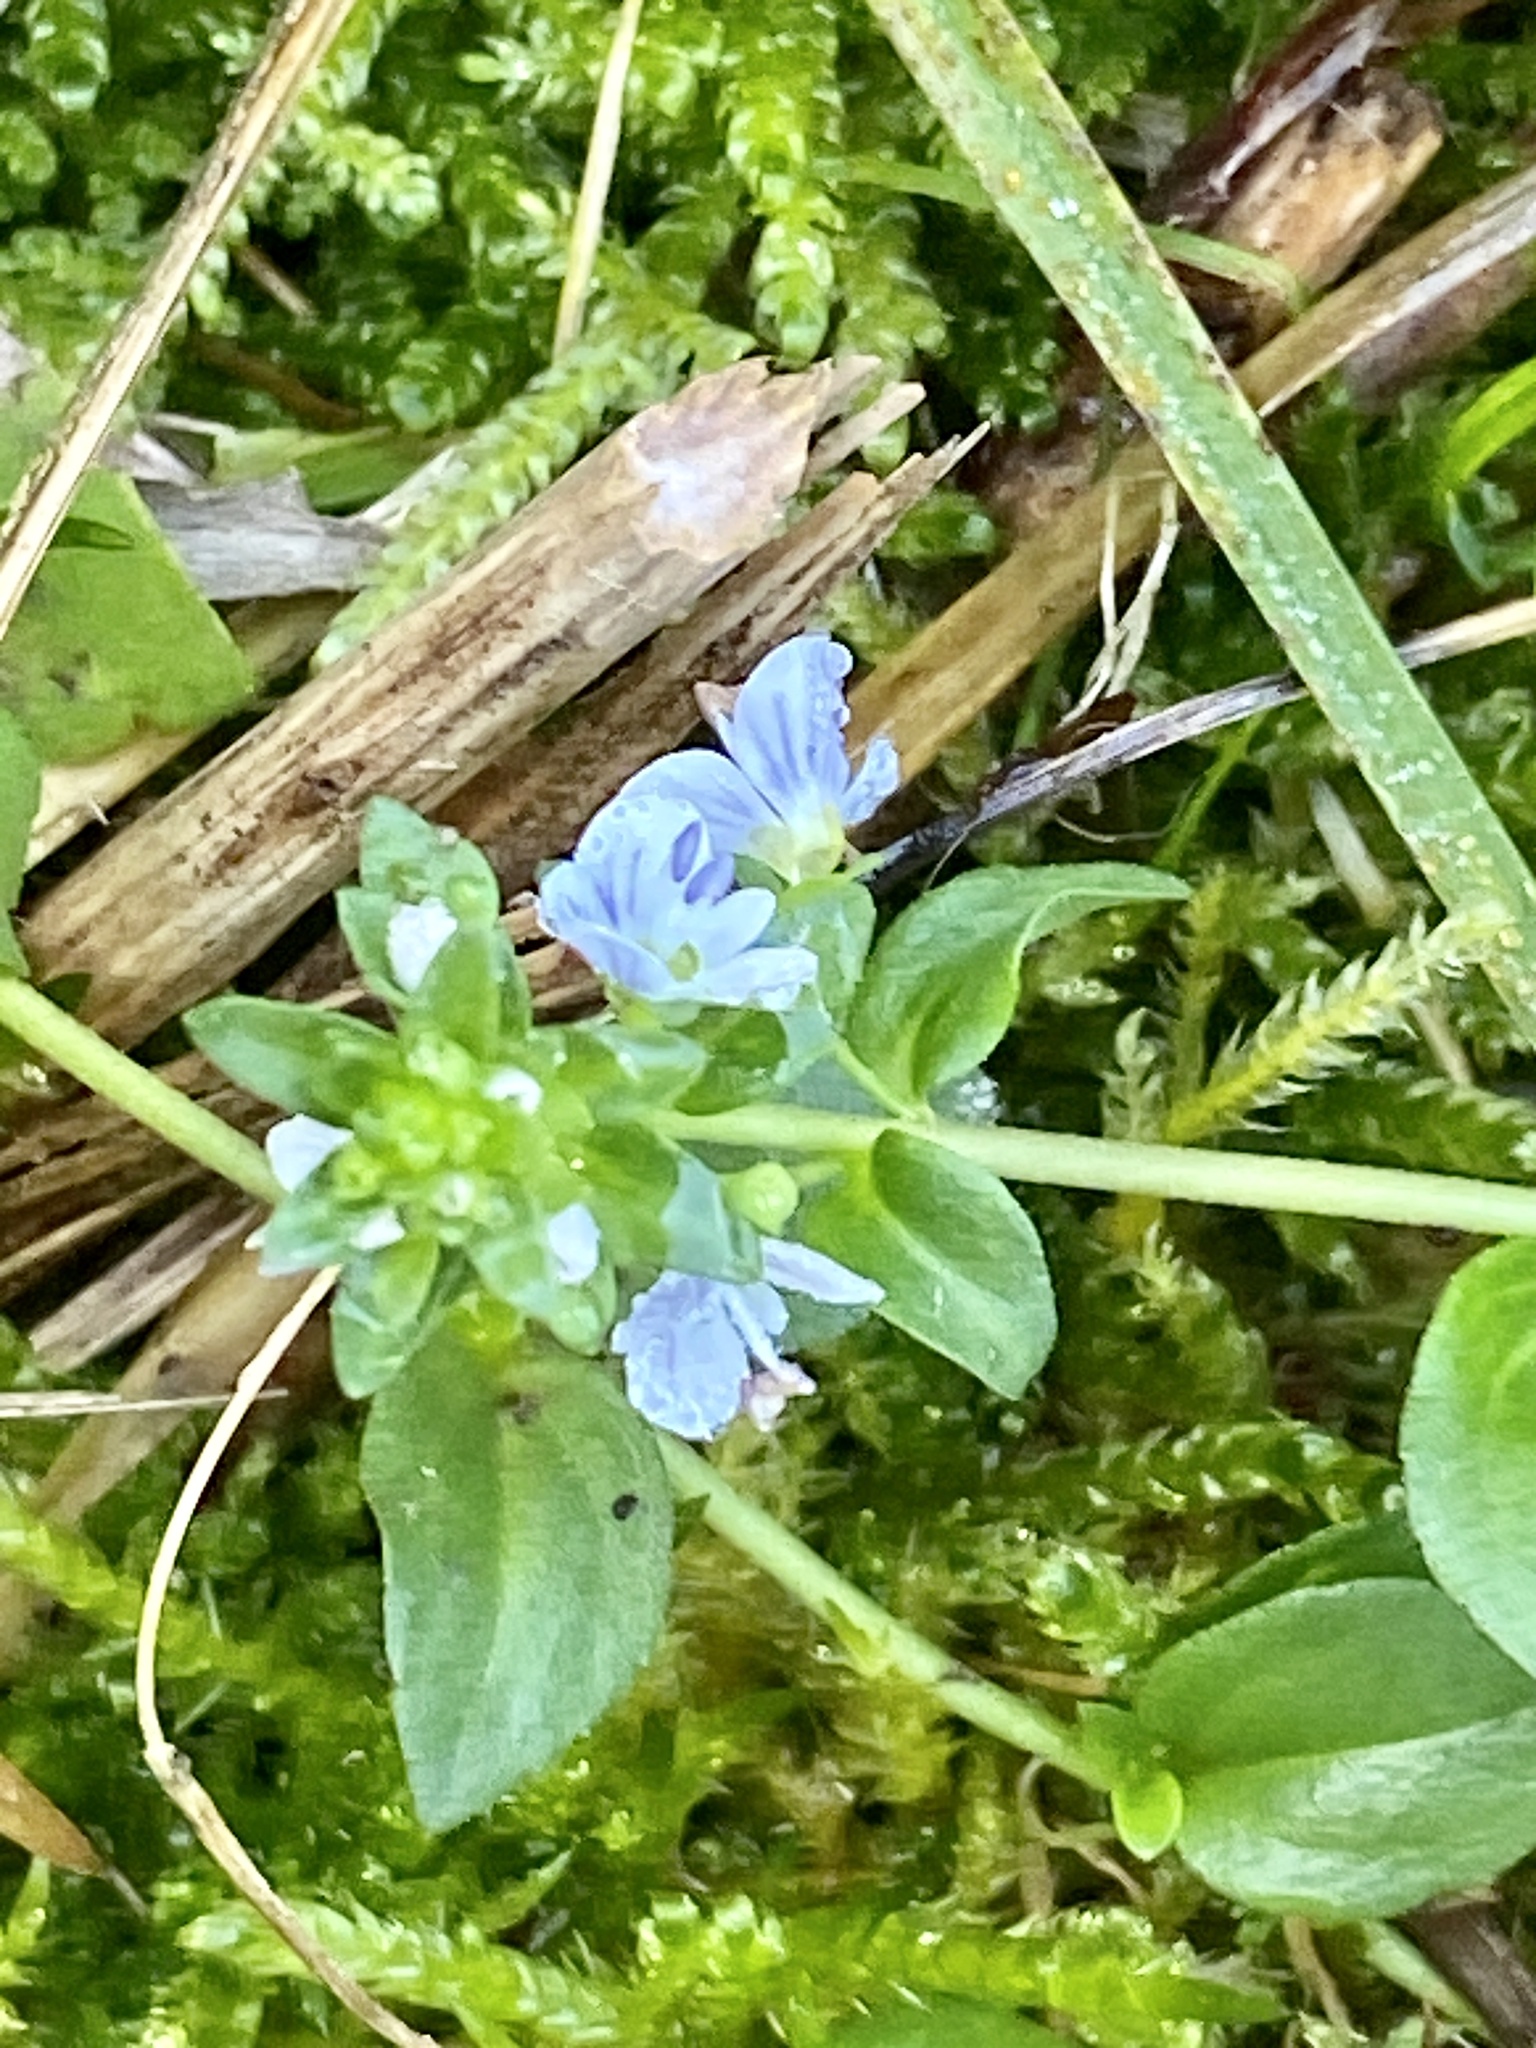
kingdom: Plantae
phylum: Tracheophyta
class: Magnoliopsida
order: Lamiales
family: Plantaginaceae
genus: Veronica
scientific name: Veronica serpyllifolia
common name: Thyme-leaved speedwell
